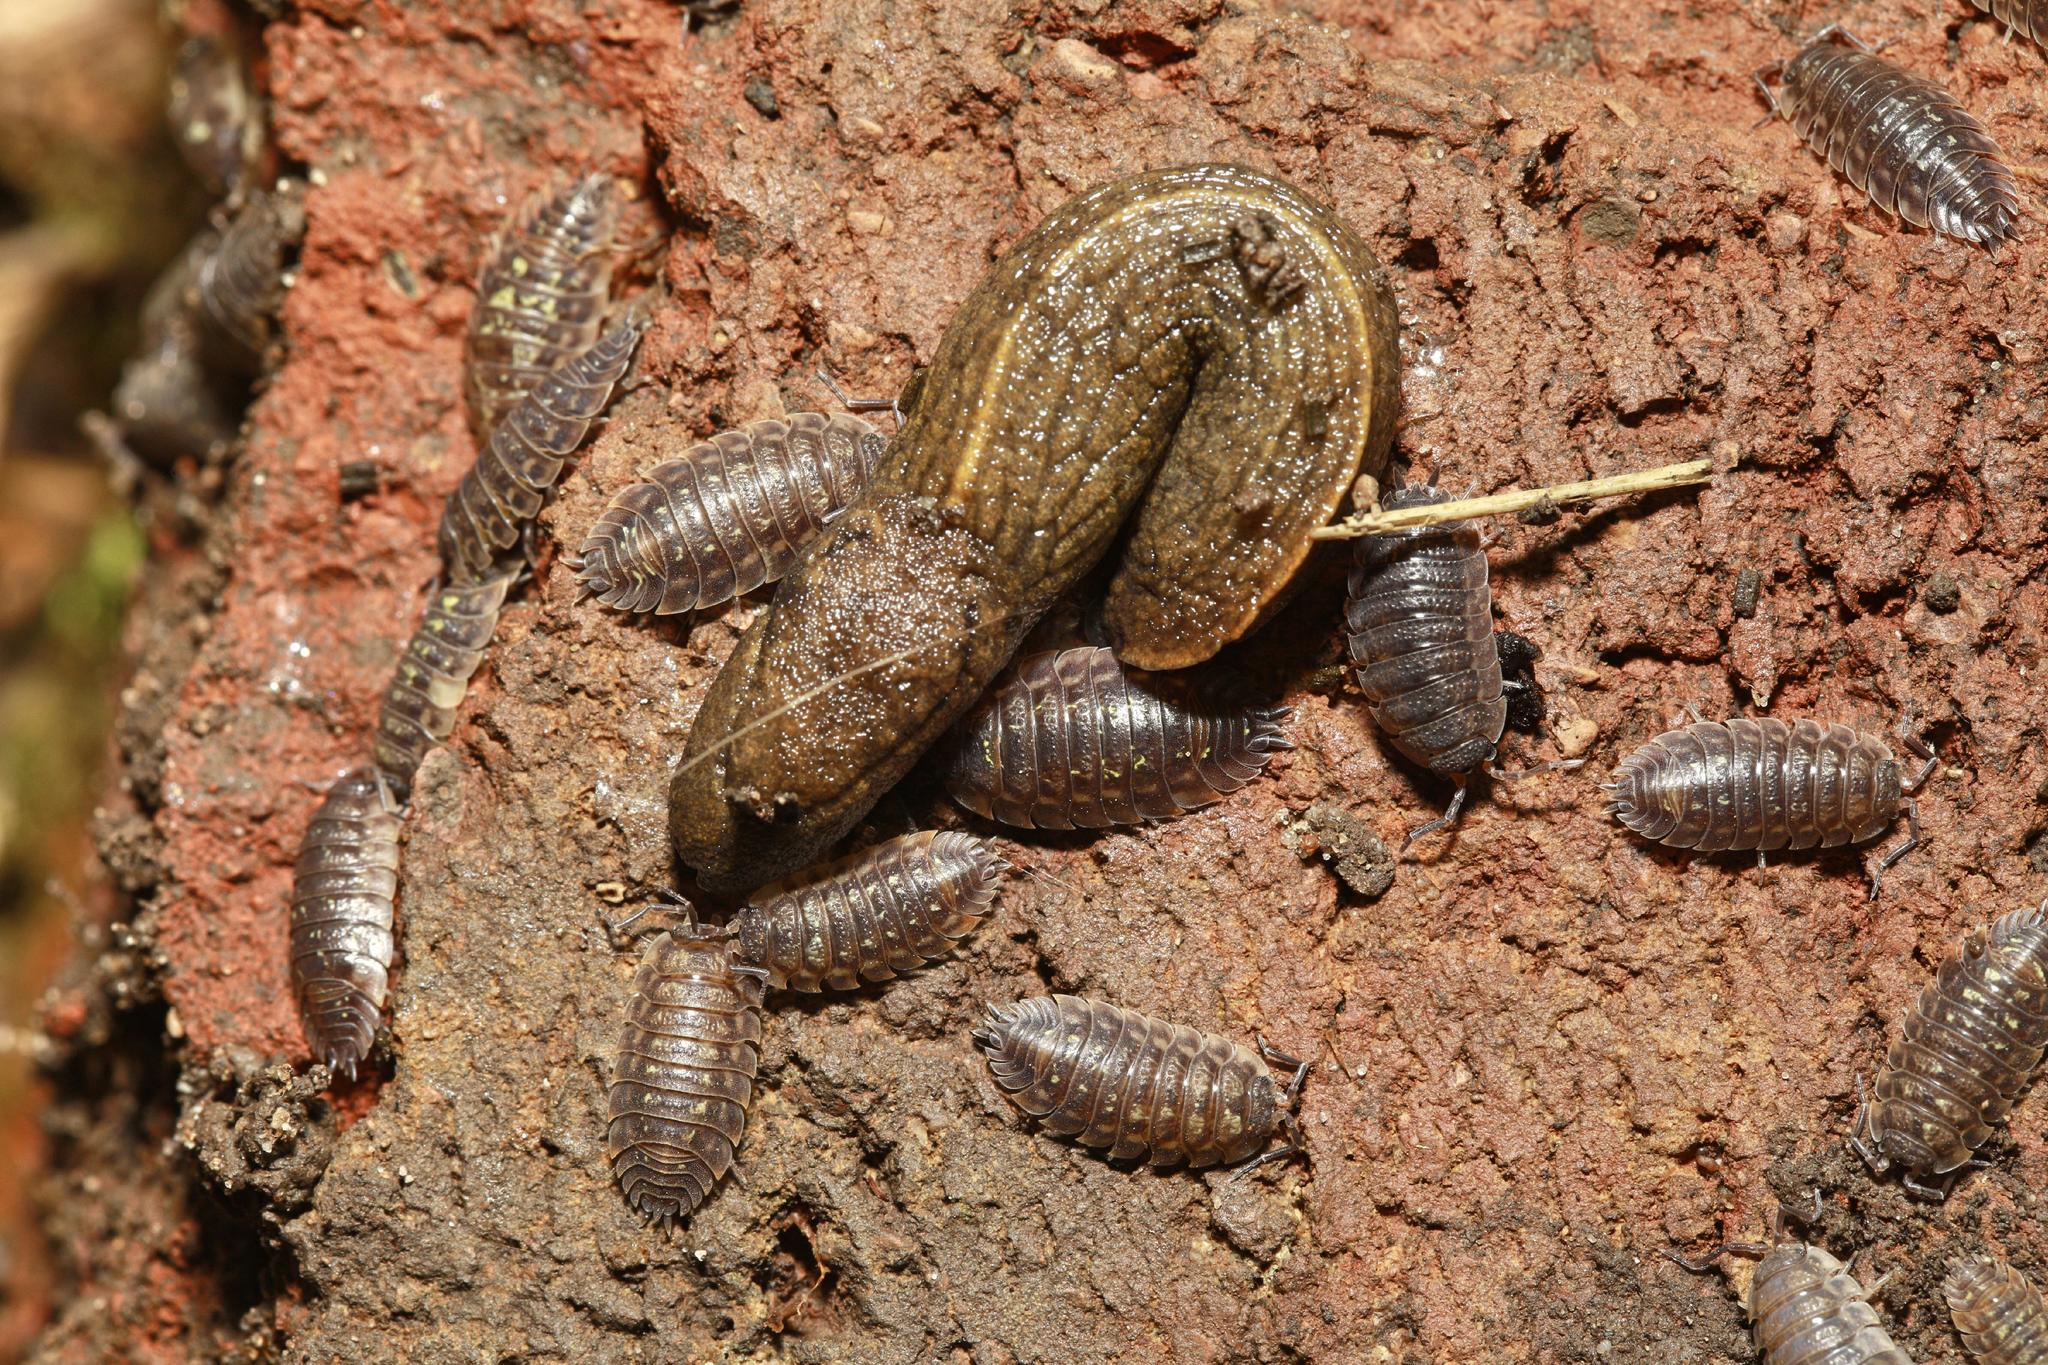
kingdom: Animalia
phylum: Arthropoda
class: Malacostraca
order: Isopoda
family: Oniscidae
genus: Oniscus
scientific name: Oniscus asellus
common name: Common shiny woodlouse
